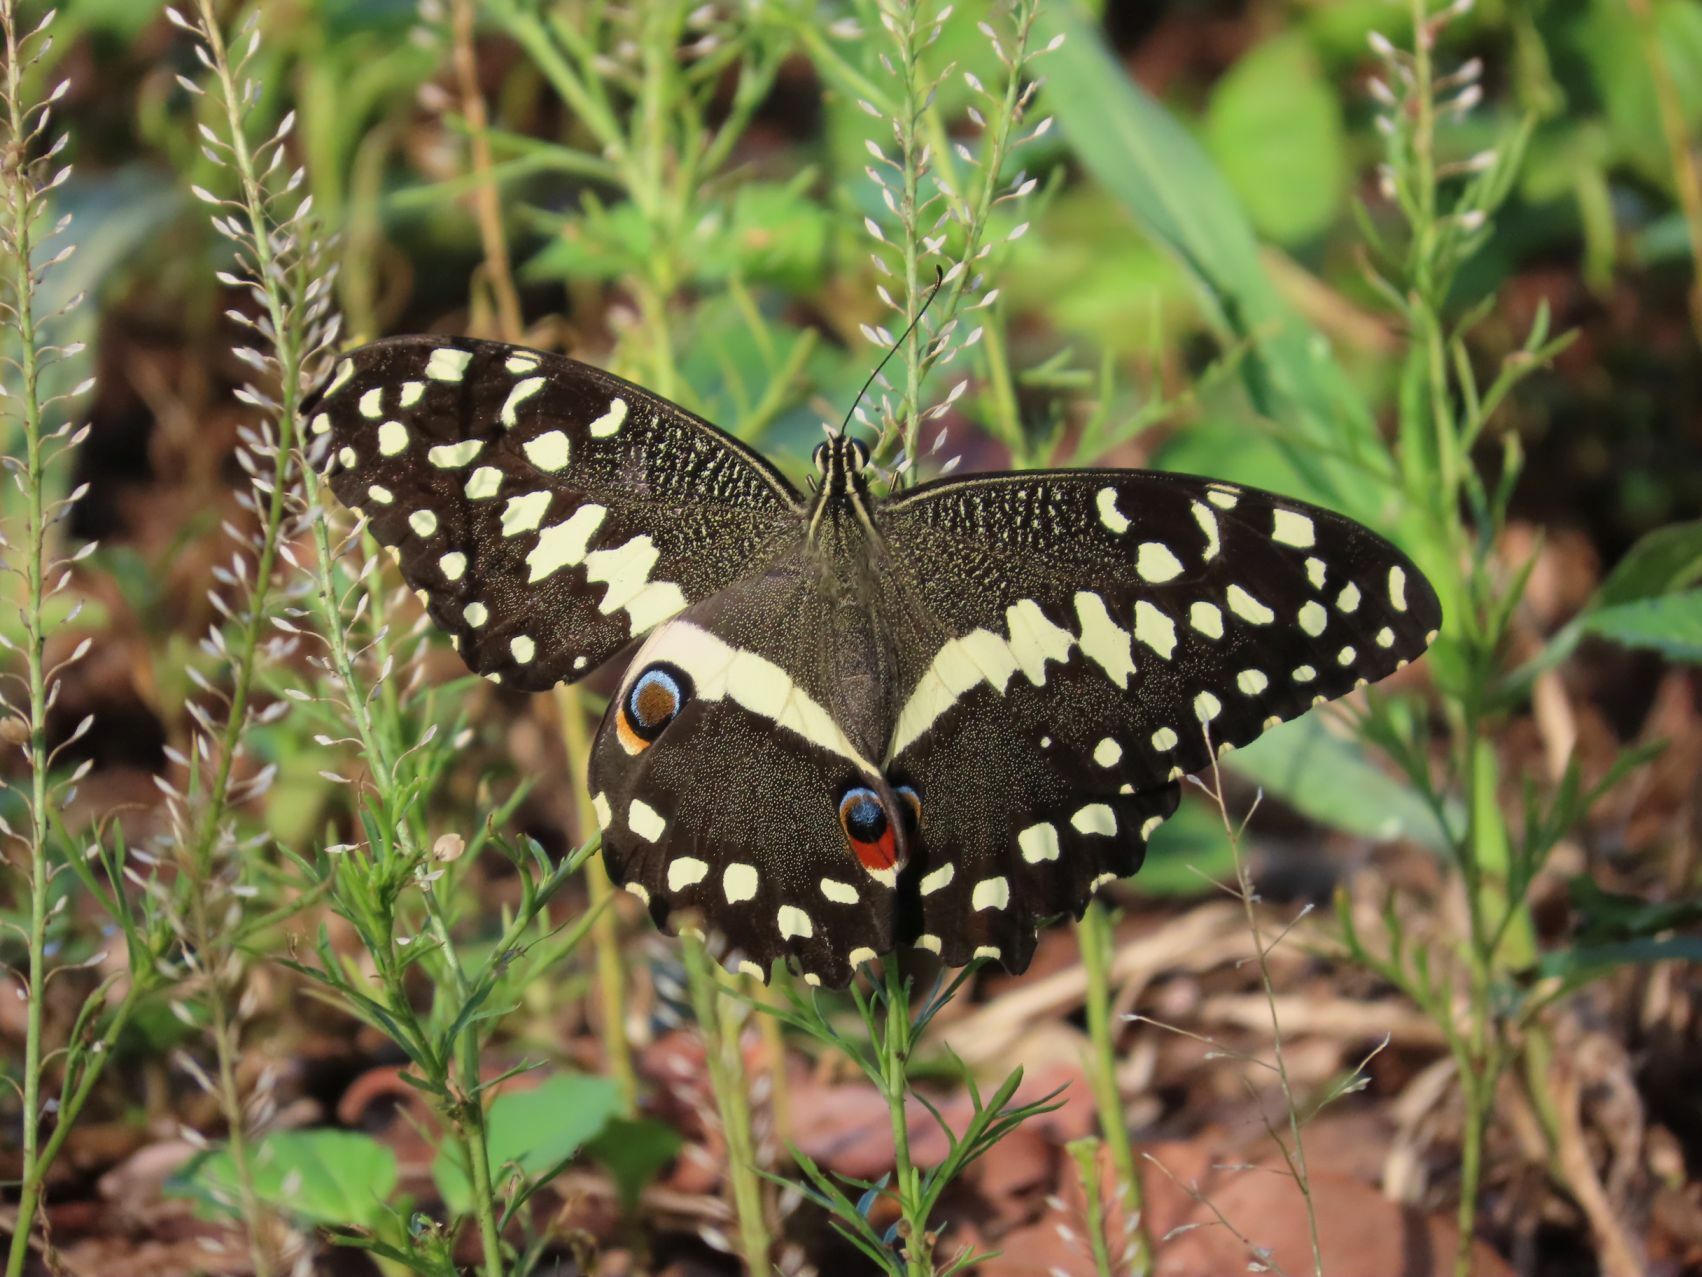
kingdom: Animalia
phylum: Arthropoda
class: Insecta
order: Lepidoptera
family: Papilionidae
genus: Papilio
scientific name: Papilio demodocus
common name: Christmas butterfly
